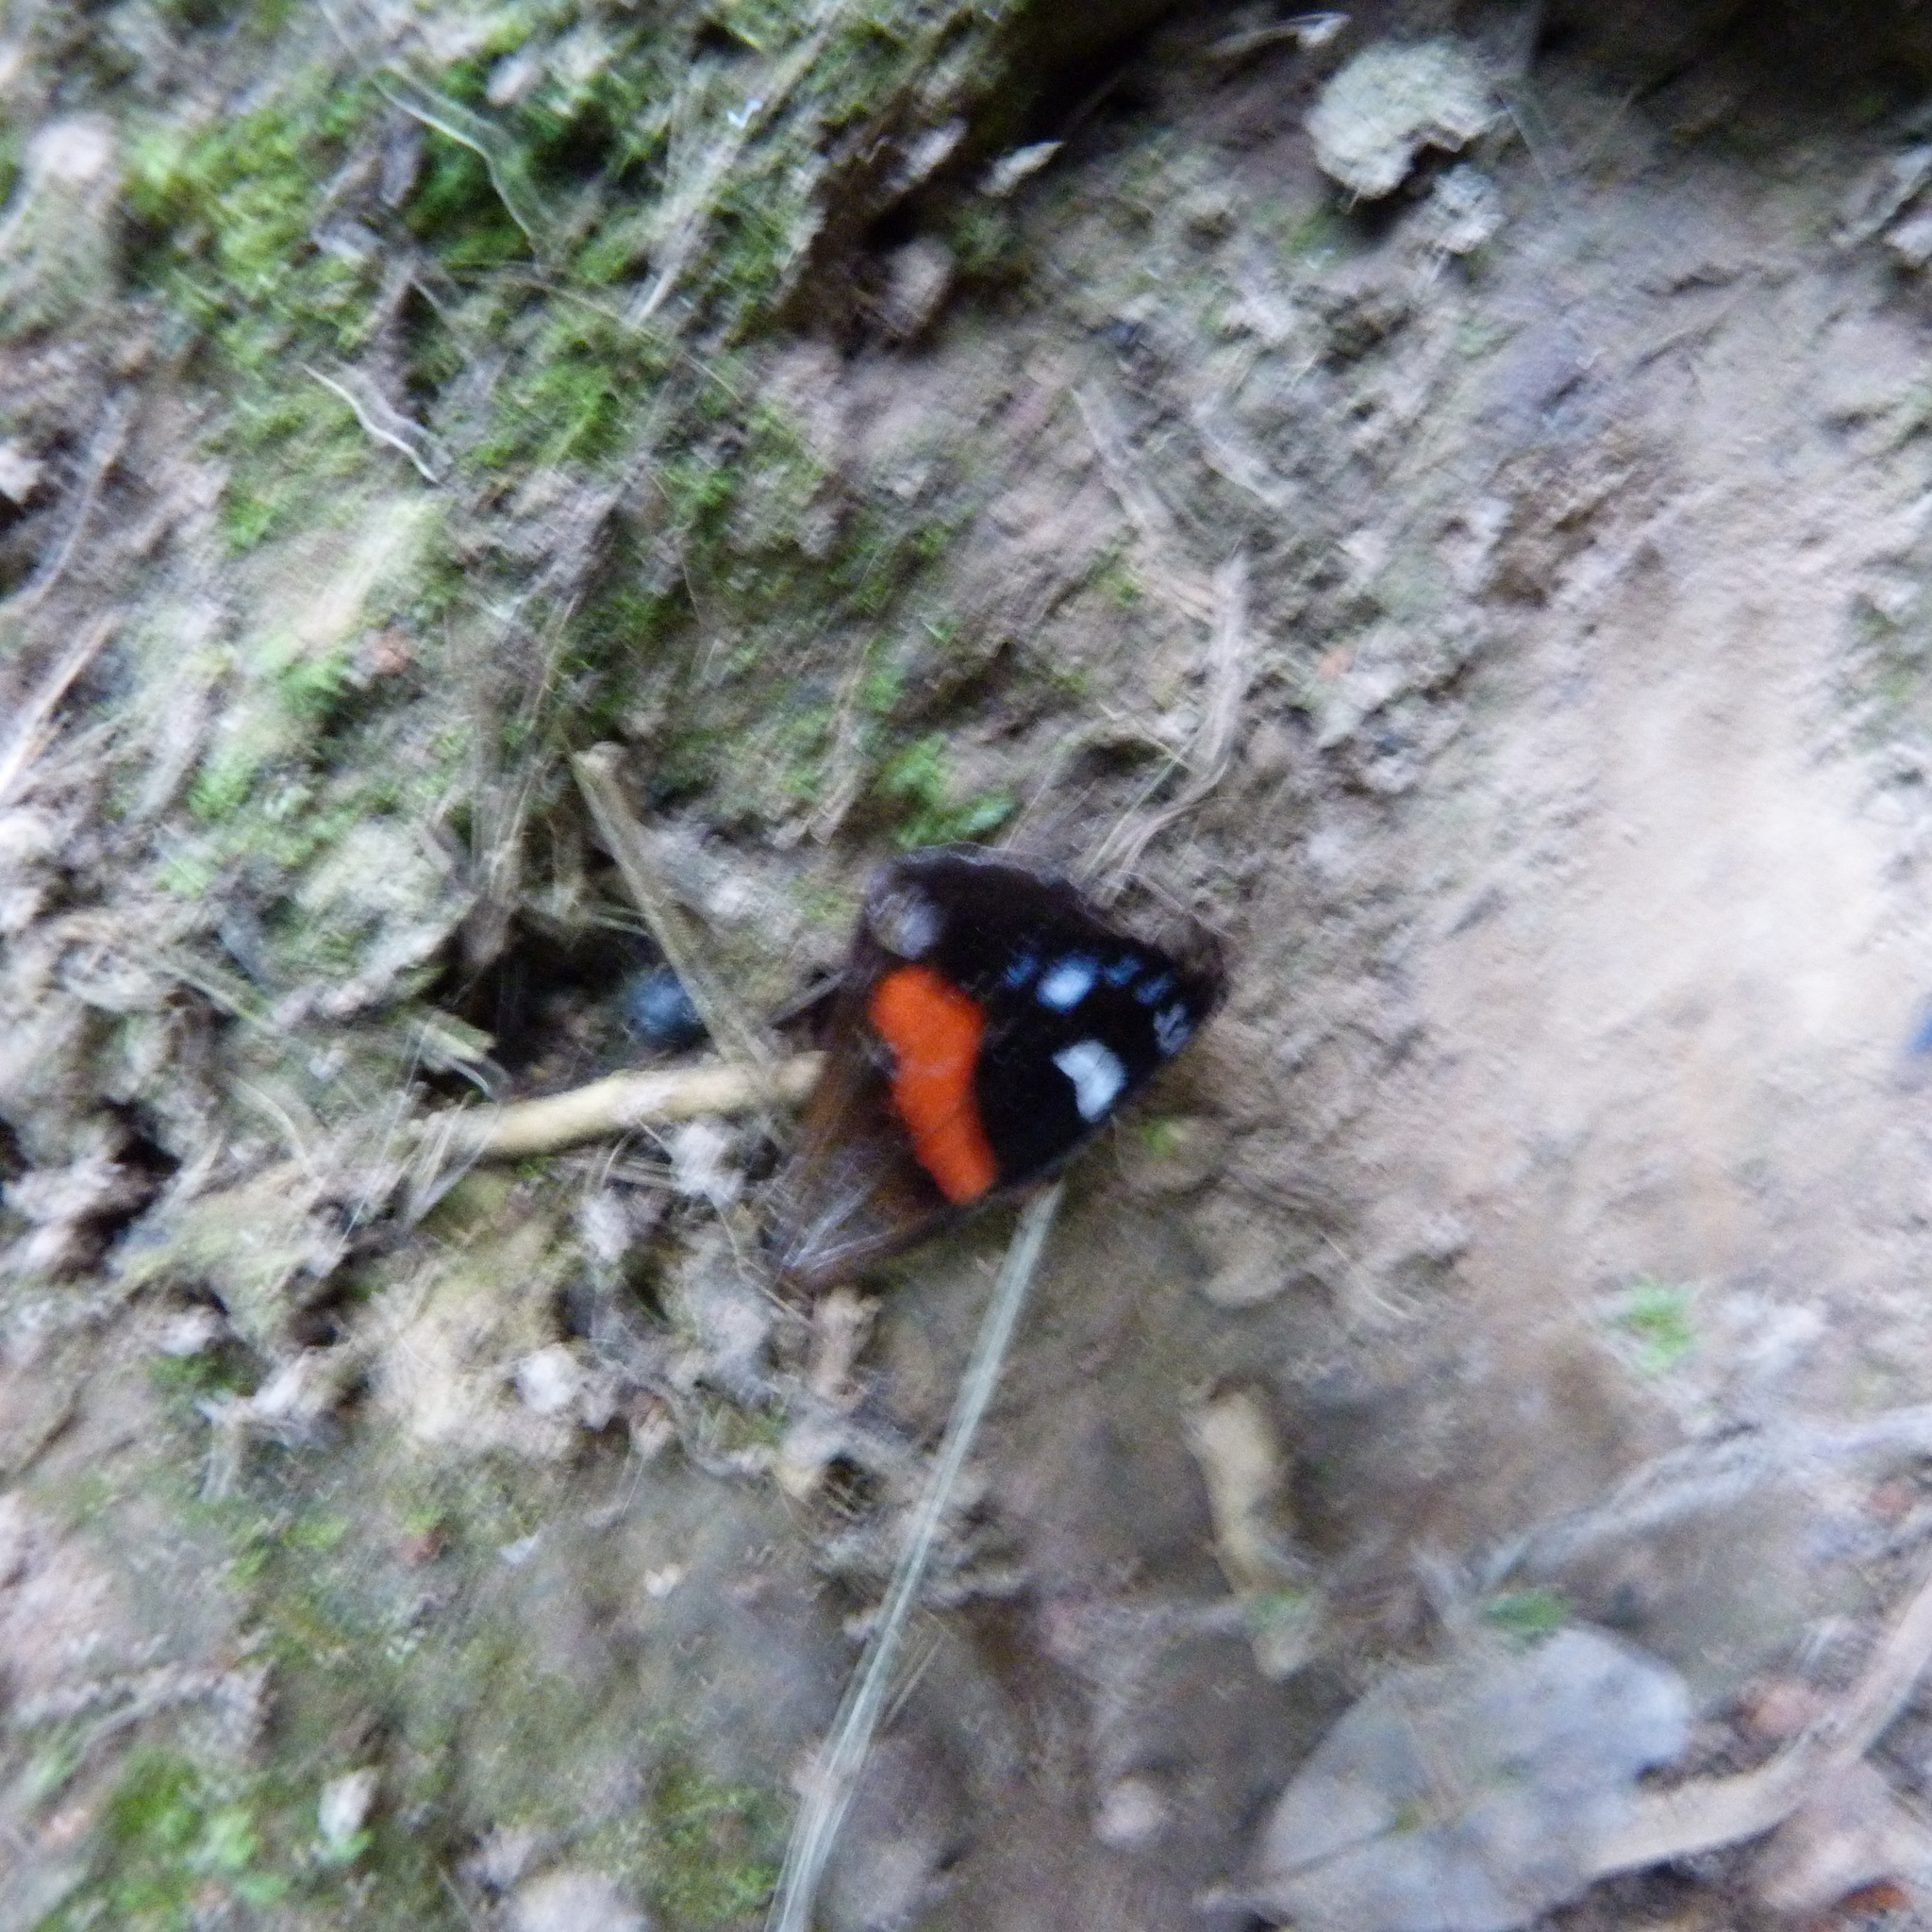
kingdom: Animalia
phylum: Arthropoda
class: Insecta
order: Lepidoptera
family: Nymphalidae
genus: Vanessa
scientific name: Vanessa gonerilla
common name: New zealand red admiral
